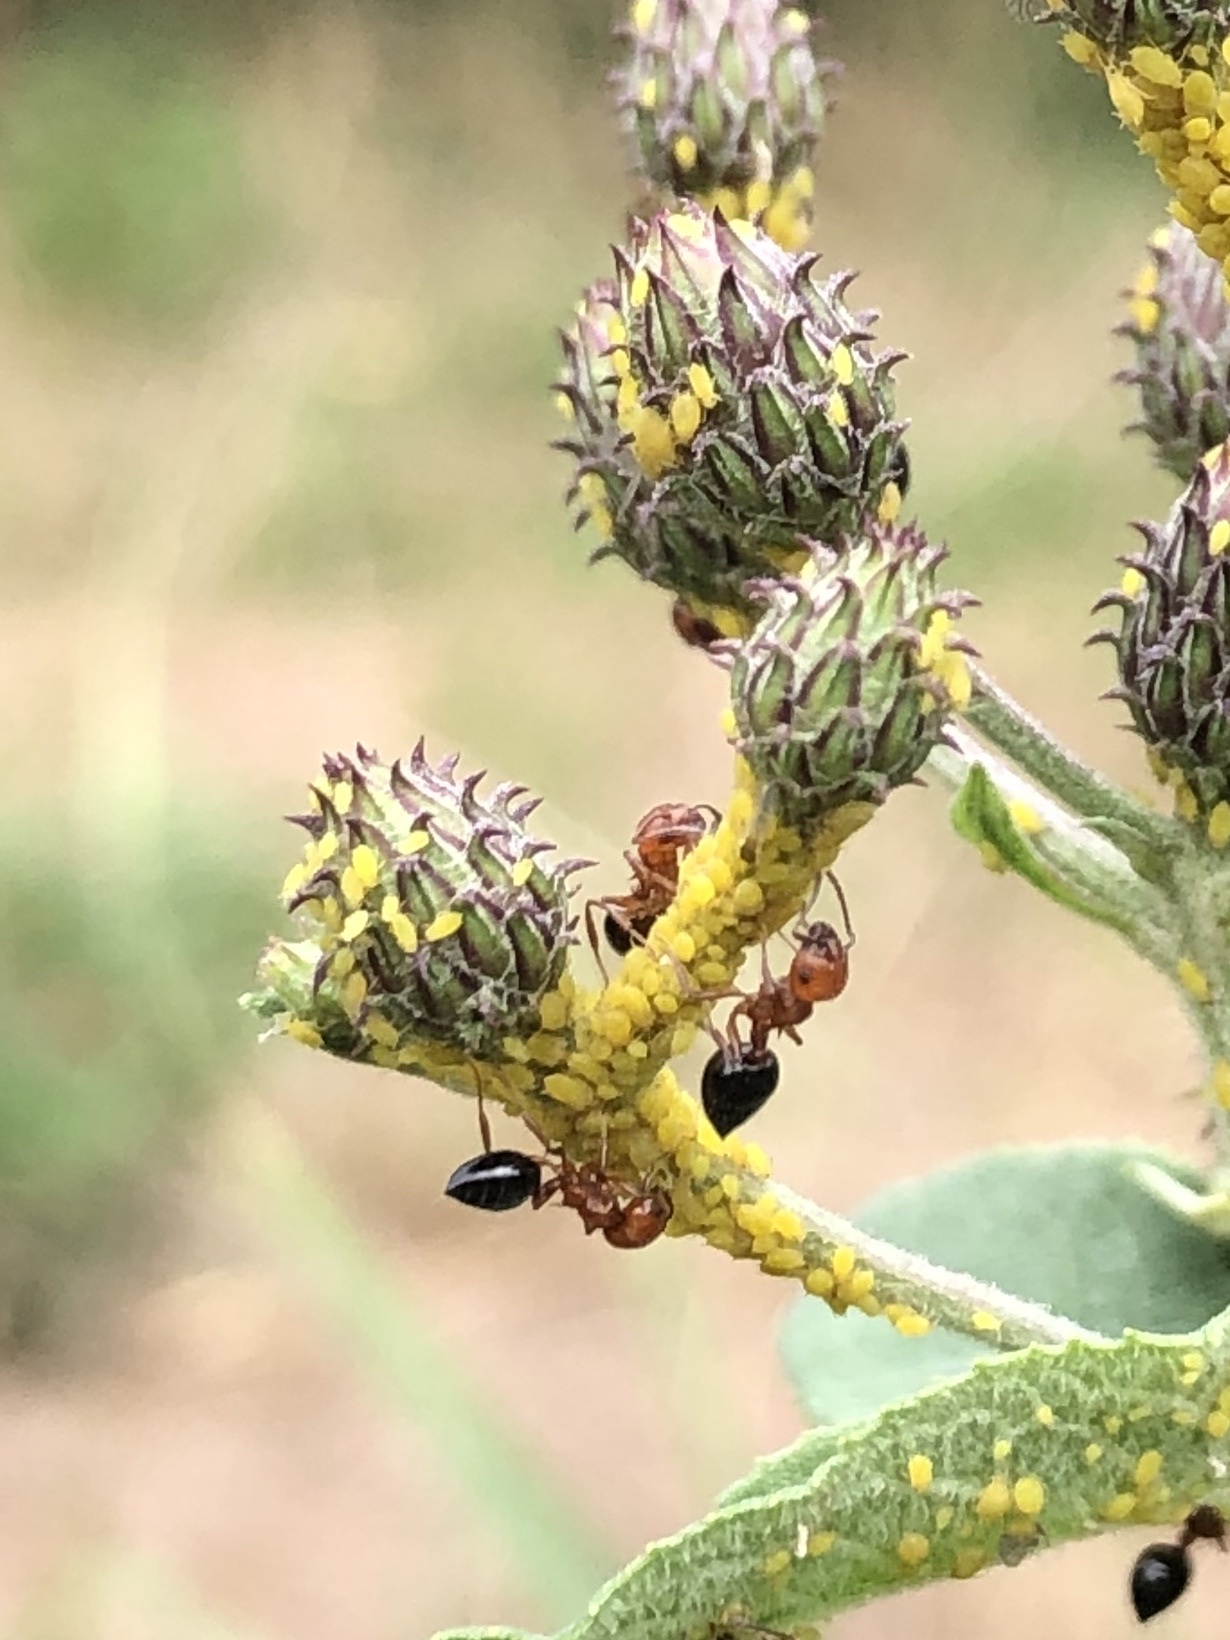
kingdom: Animalia
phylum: Arthropoda
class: Insecta
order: Hymenoptera
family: Formicidae
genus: Crematogaster
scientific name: Crematogaster laeviuscula
